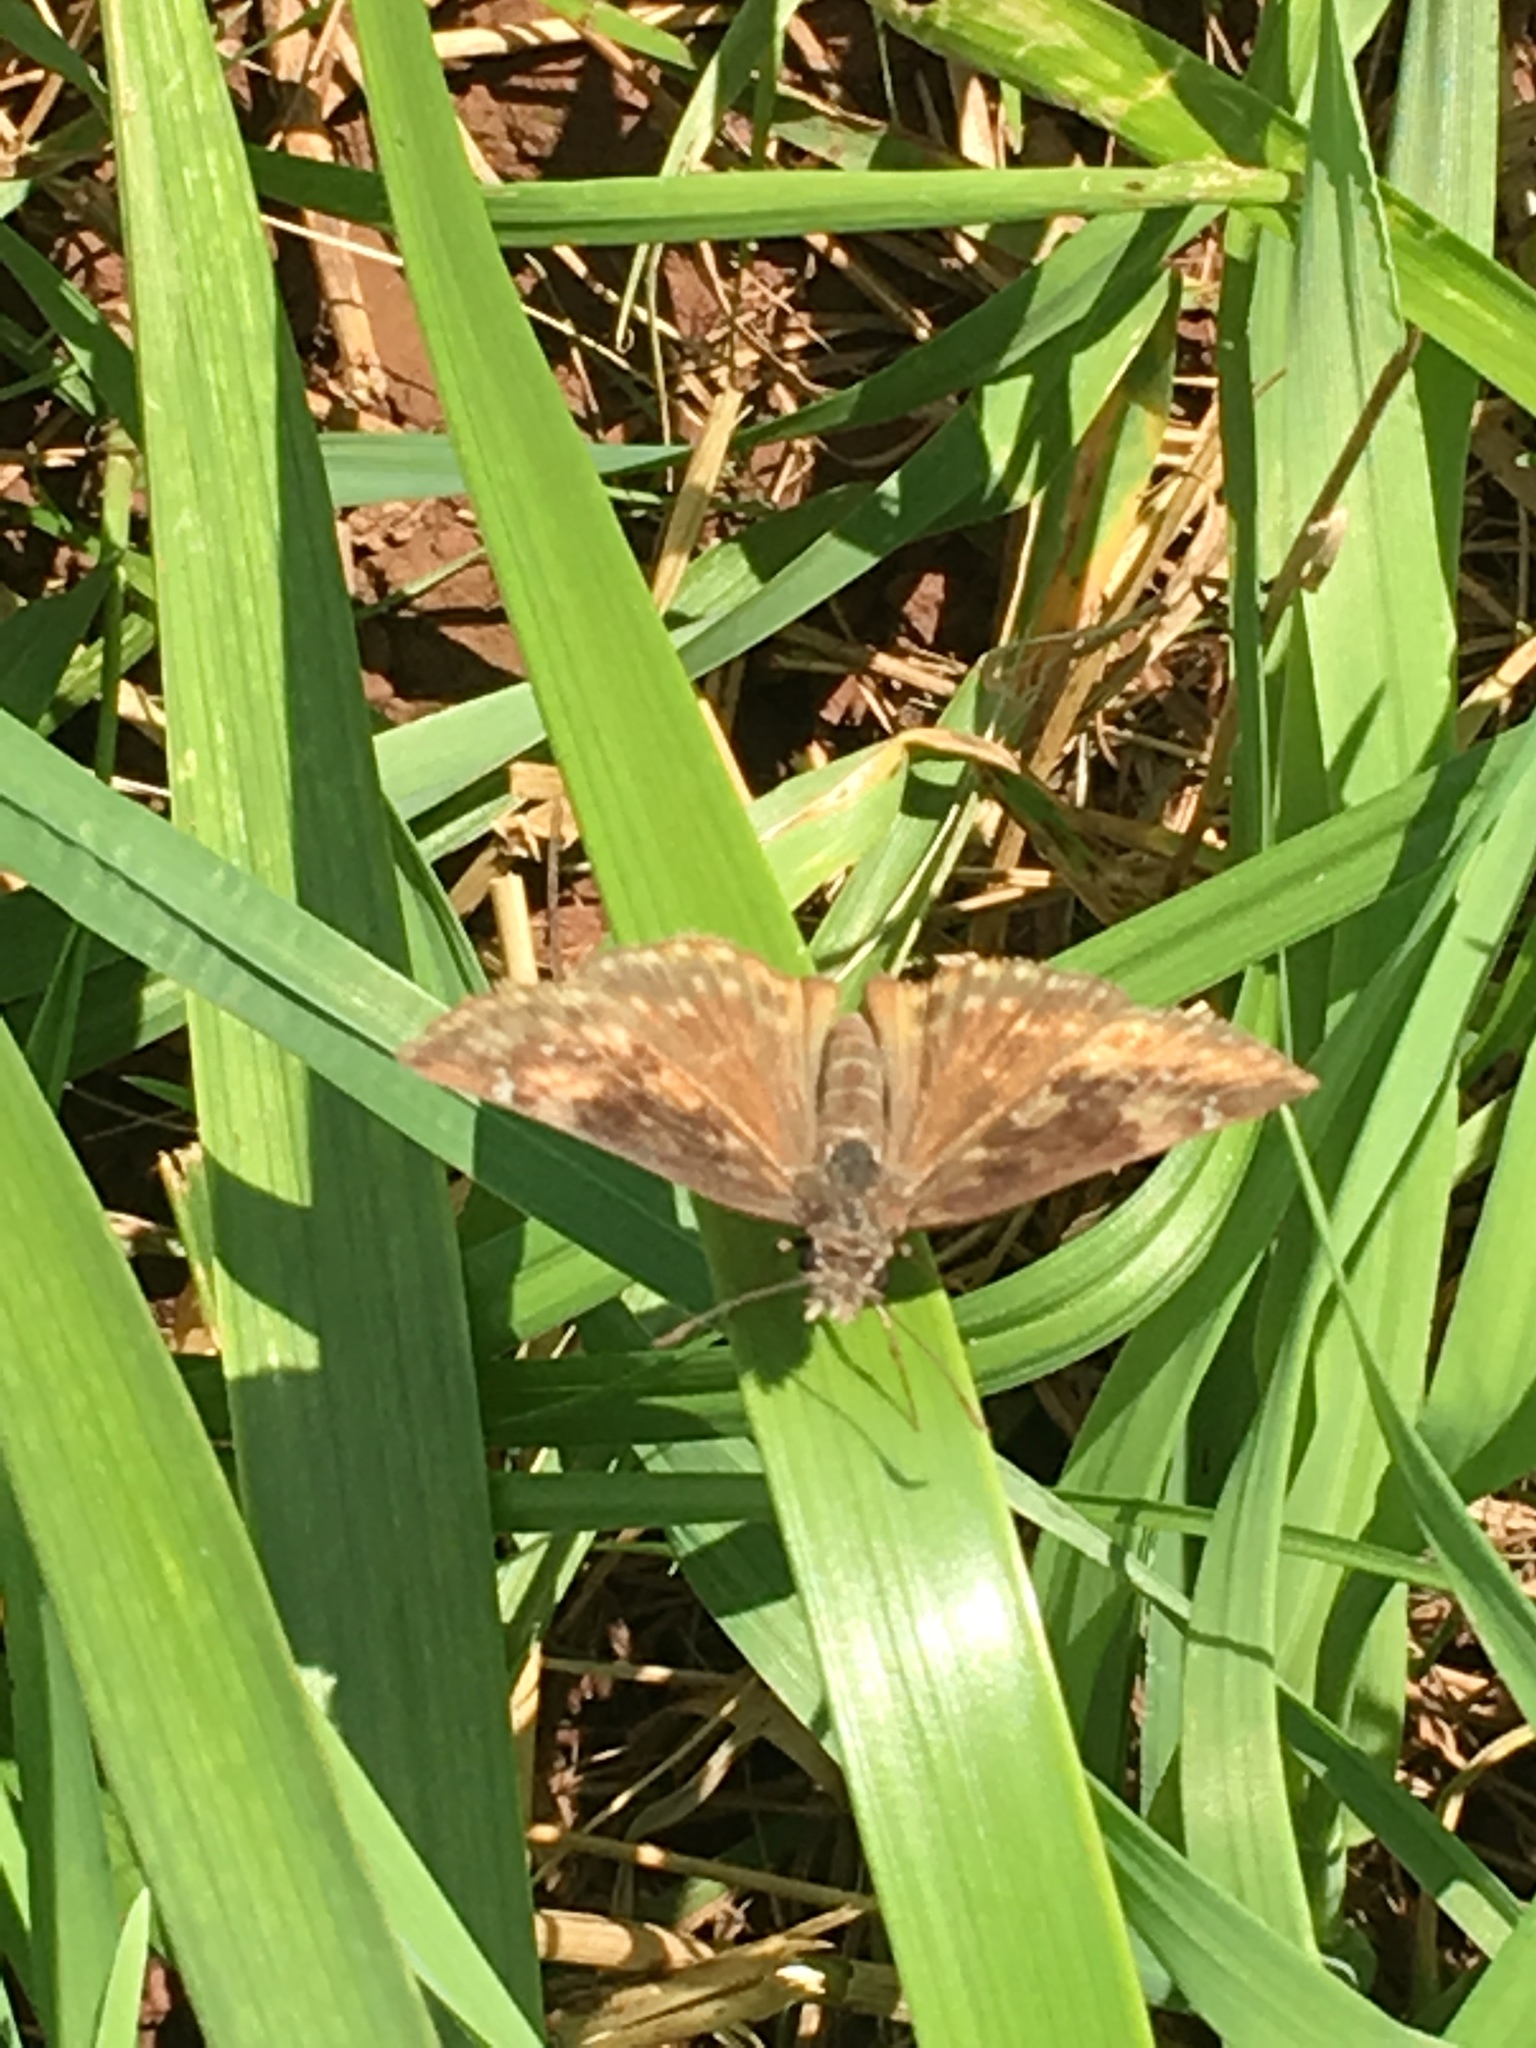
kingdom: Animalia
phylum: Arthropoda
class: Insecta
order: Lepidoptera
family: Hesperiidae
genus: Erynnis
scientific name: Erynnis baptisiae
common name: Wild indigo duskywing
